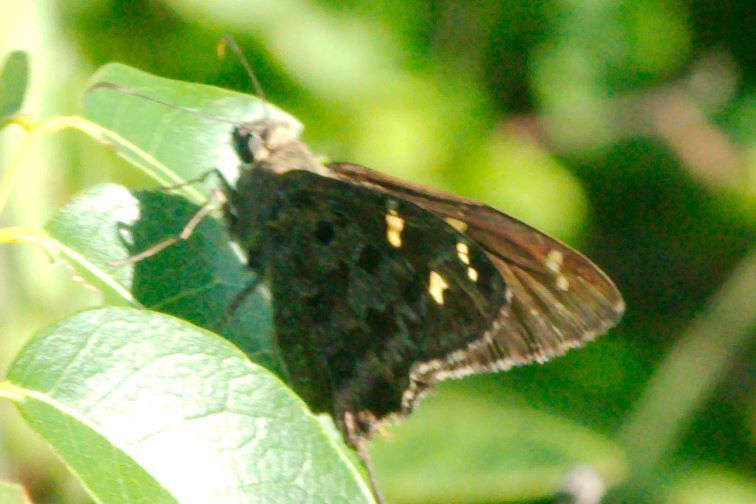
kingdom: Animalia
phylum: Arthropoda
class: Insecta
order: Lepidoptera
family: Hesperiidae
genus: Thorybes
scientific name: Thorybes
